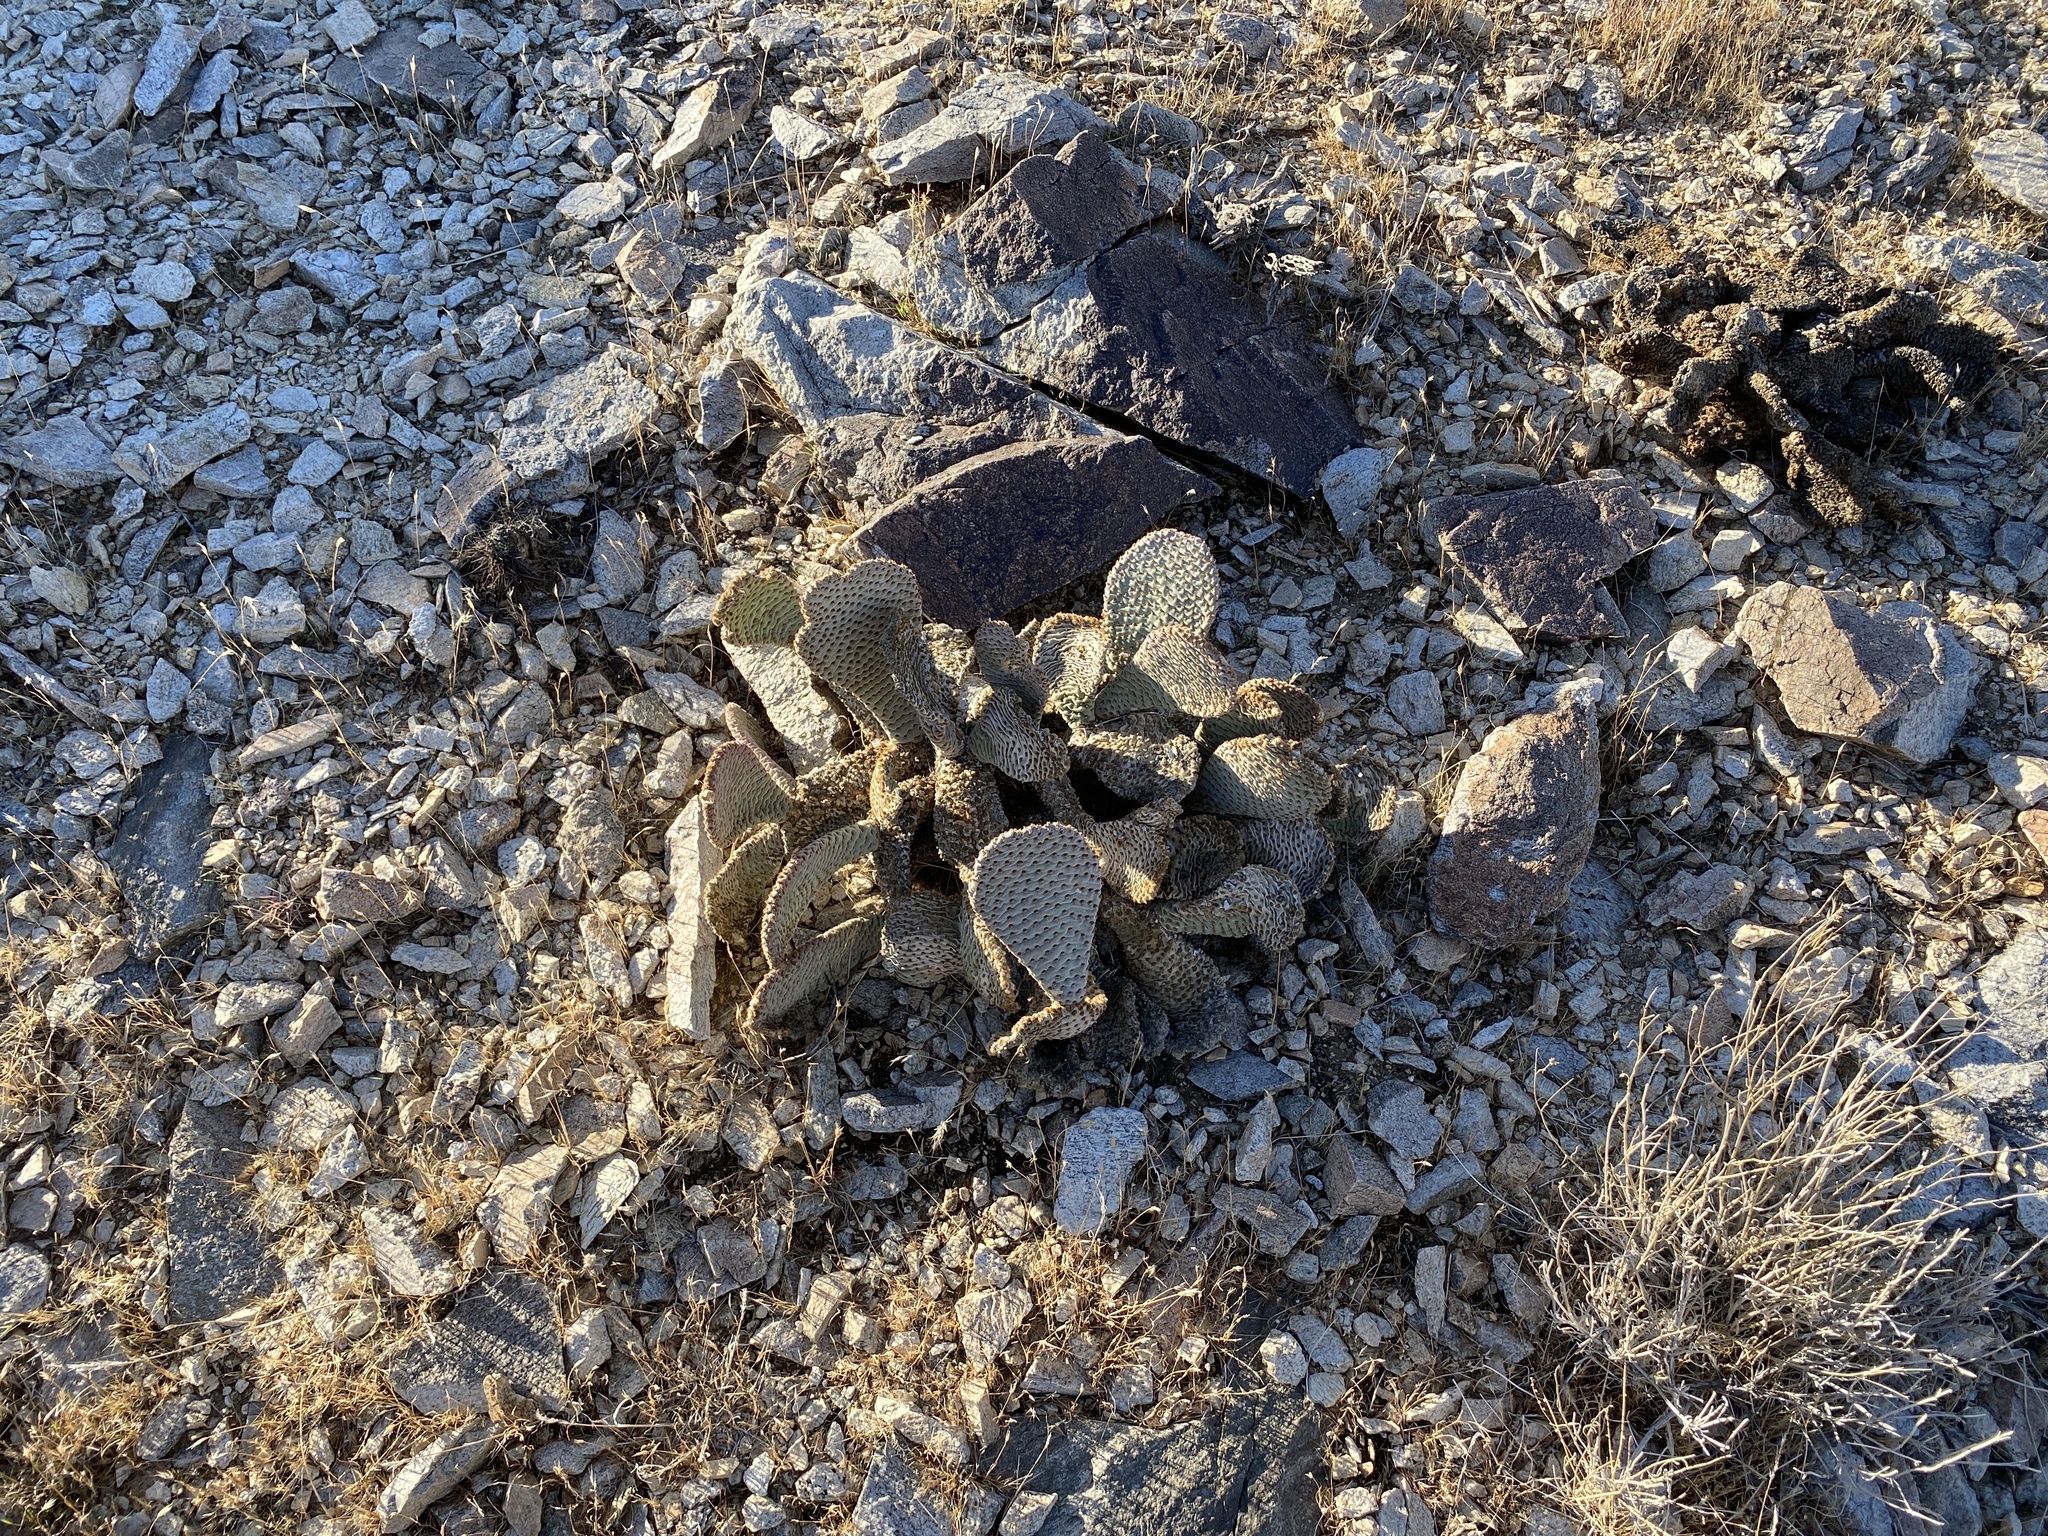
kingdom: Plantae
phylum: Tracheophyta
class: Magnoliopsida
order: Caryophyllales
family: Cactaceae
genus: Opuntia
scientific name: Opuntia basilaris
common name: Beavertail prickly-pear
